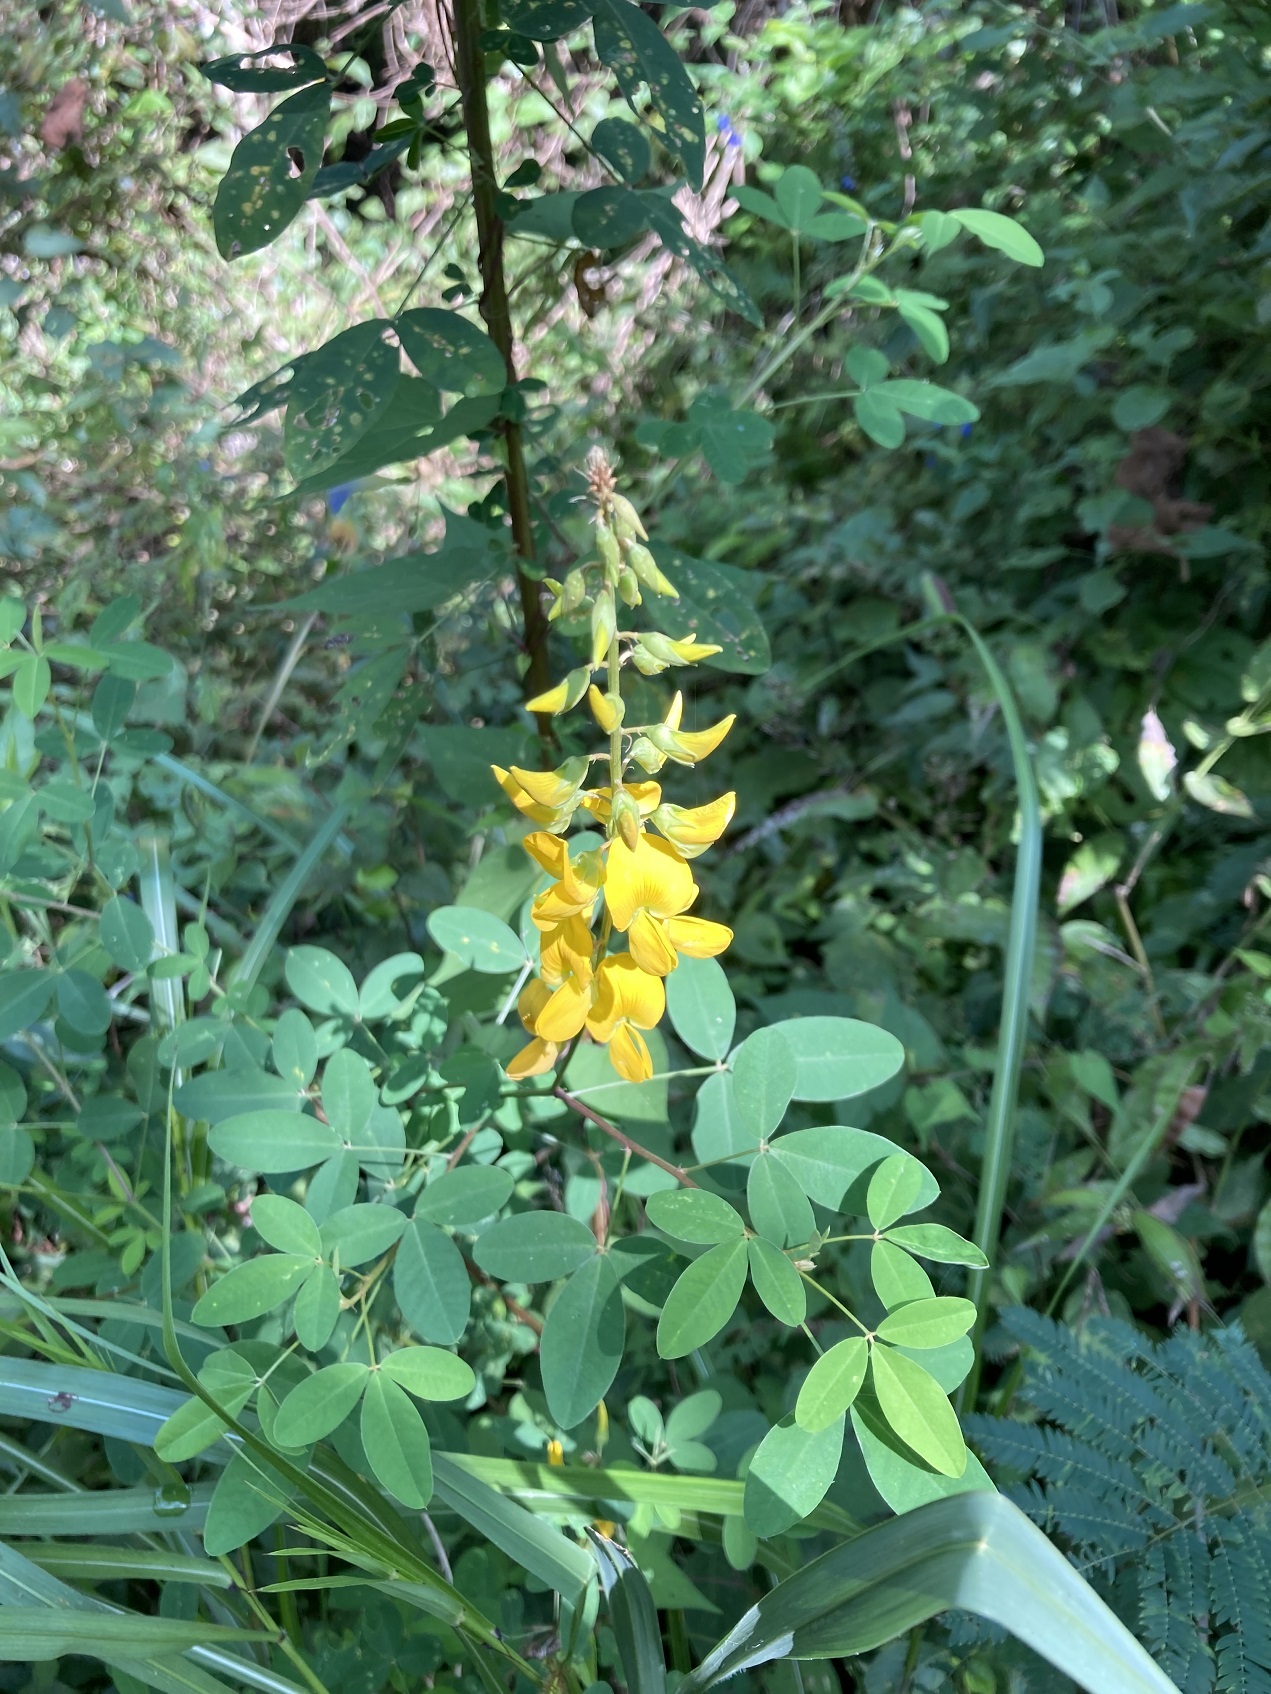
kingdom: Plantae
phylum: Tracheophyta
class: Magnoliopsida
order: Fabales
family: Fabaceae
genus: Crotalaria
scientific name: Crotalaria cajanifolia
